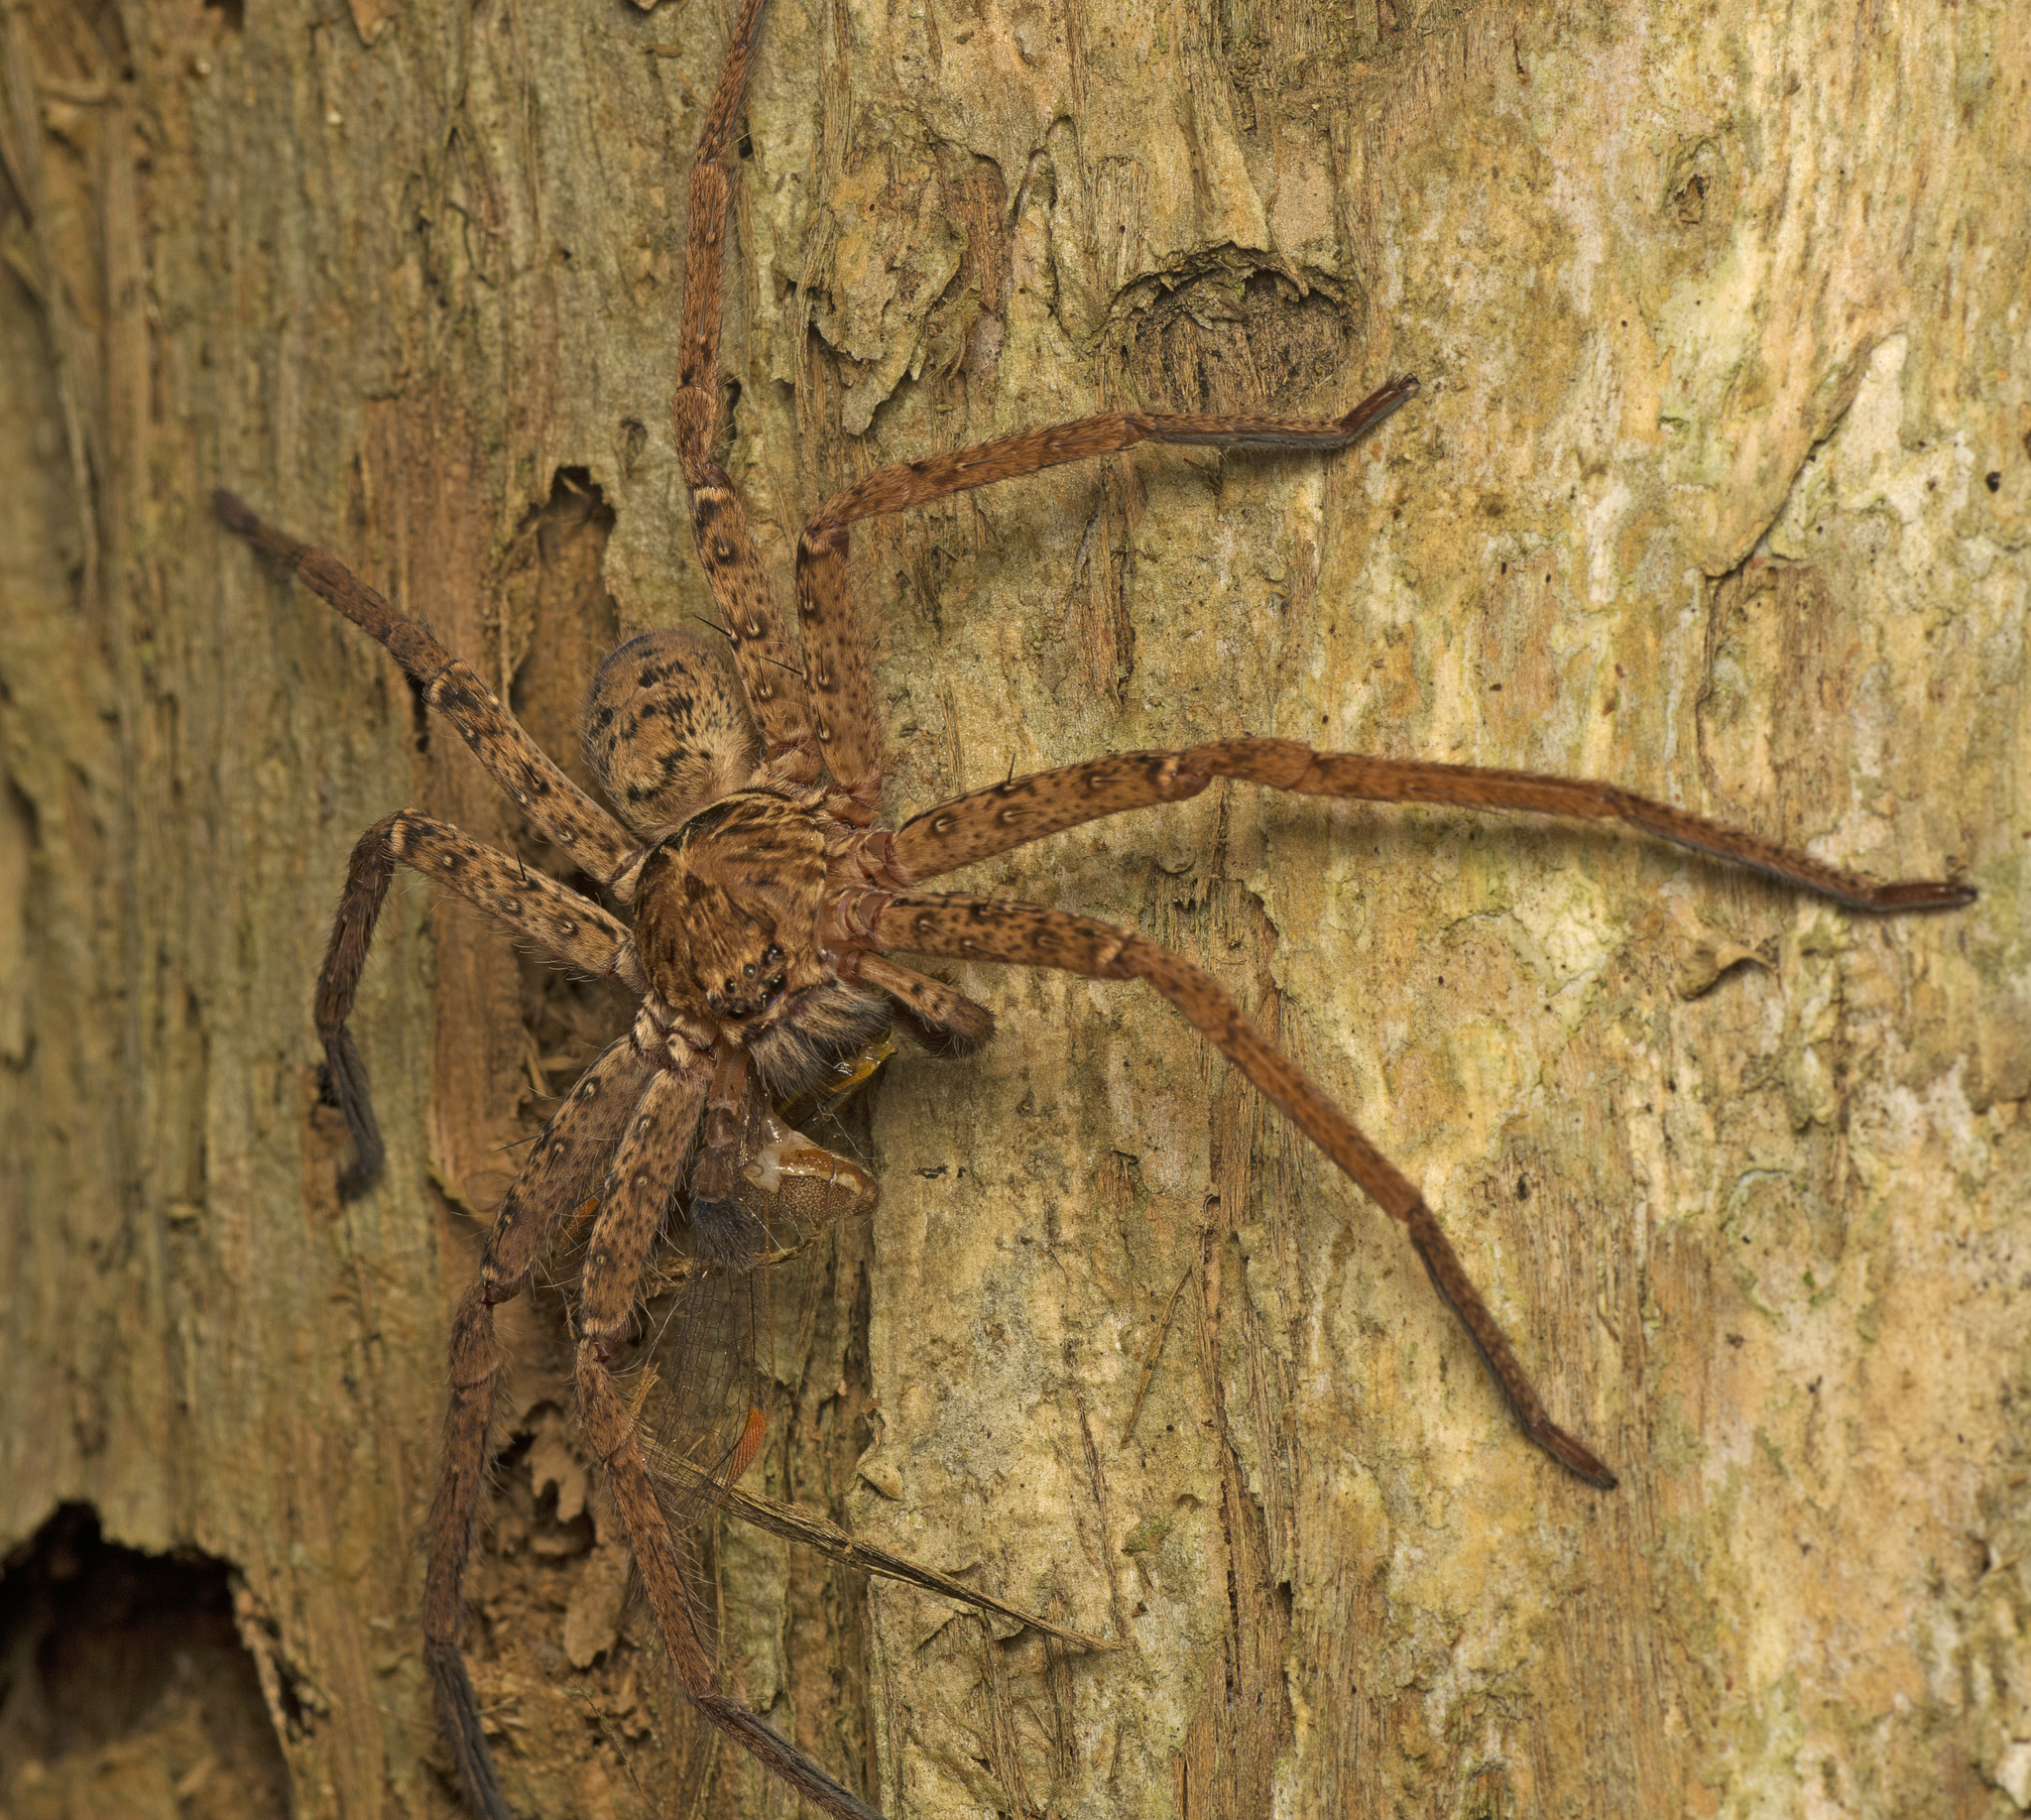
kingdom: Animalia
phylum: Arthropoda
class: Arachnida
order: Araneae
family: Sparassidae
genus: Heteropoda
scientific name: Heteropoda jugulans
